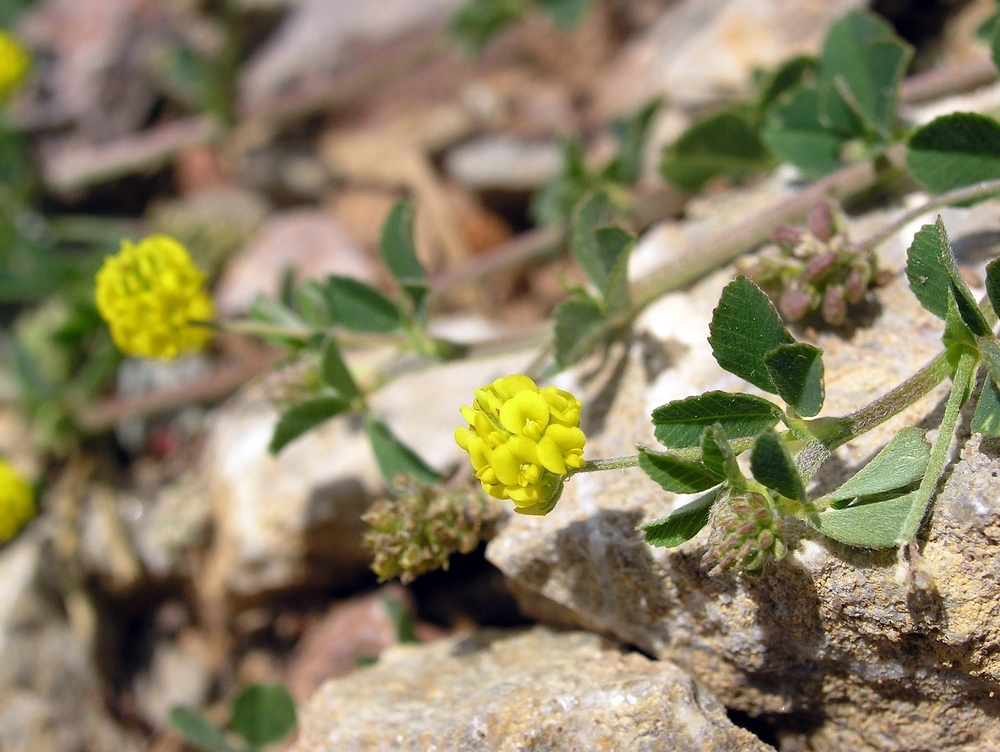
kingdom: Plantae
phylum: Tracheophyta
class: Magnoliopsida
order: Fabales
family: Fabaceae
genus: Medicago
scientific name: Medicago lupulina
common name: Black medick
